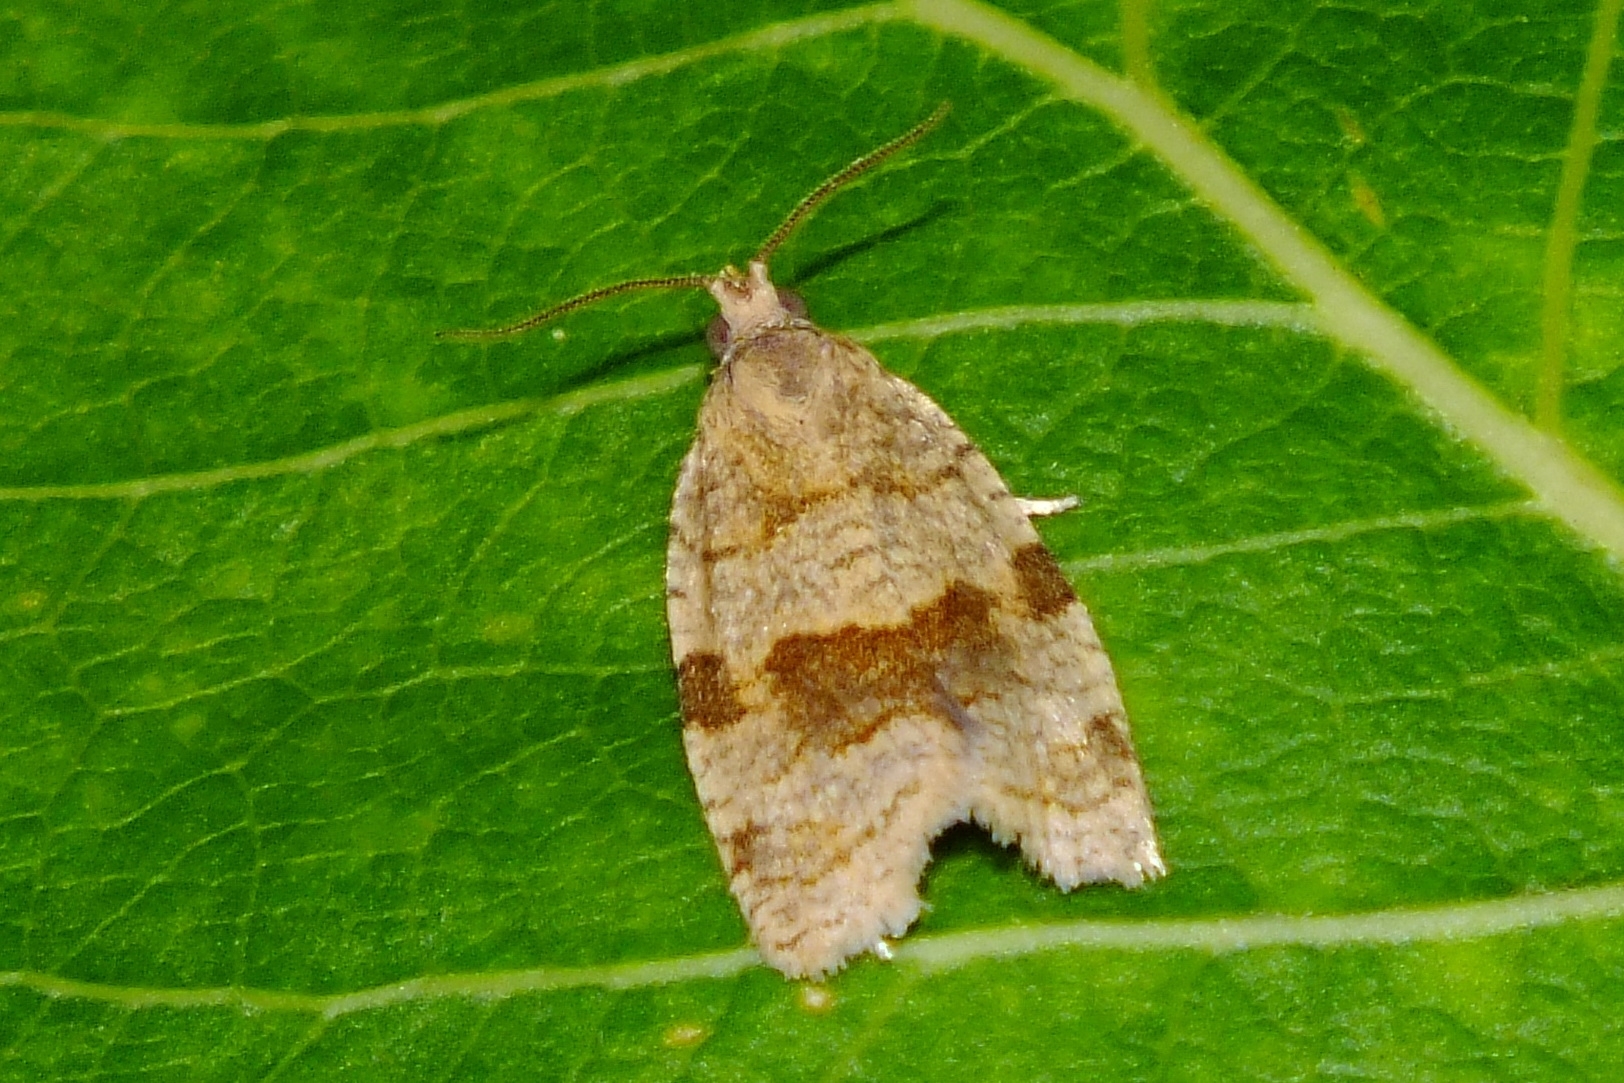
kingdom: Animalia
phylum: Arthropoda
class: Insecta
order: Lepidoptera
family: Tortricidae
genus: Choristoneura
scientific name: Choristoneura diversana
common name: Forest tortrix
